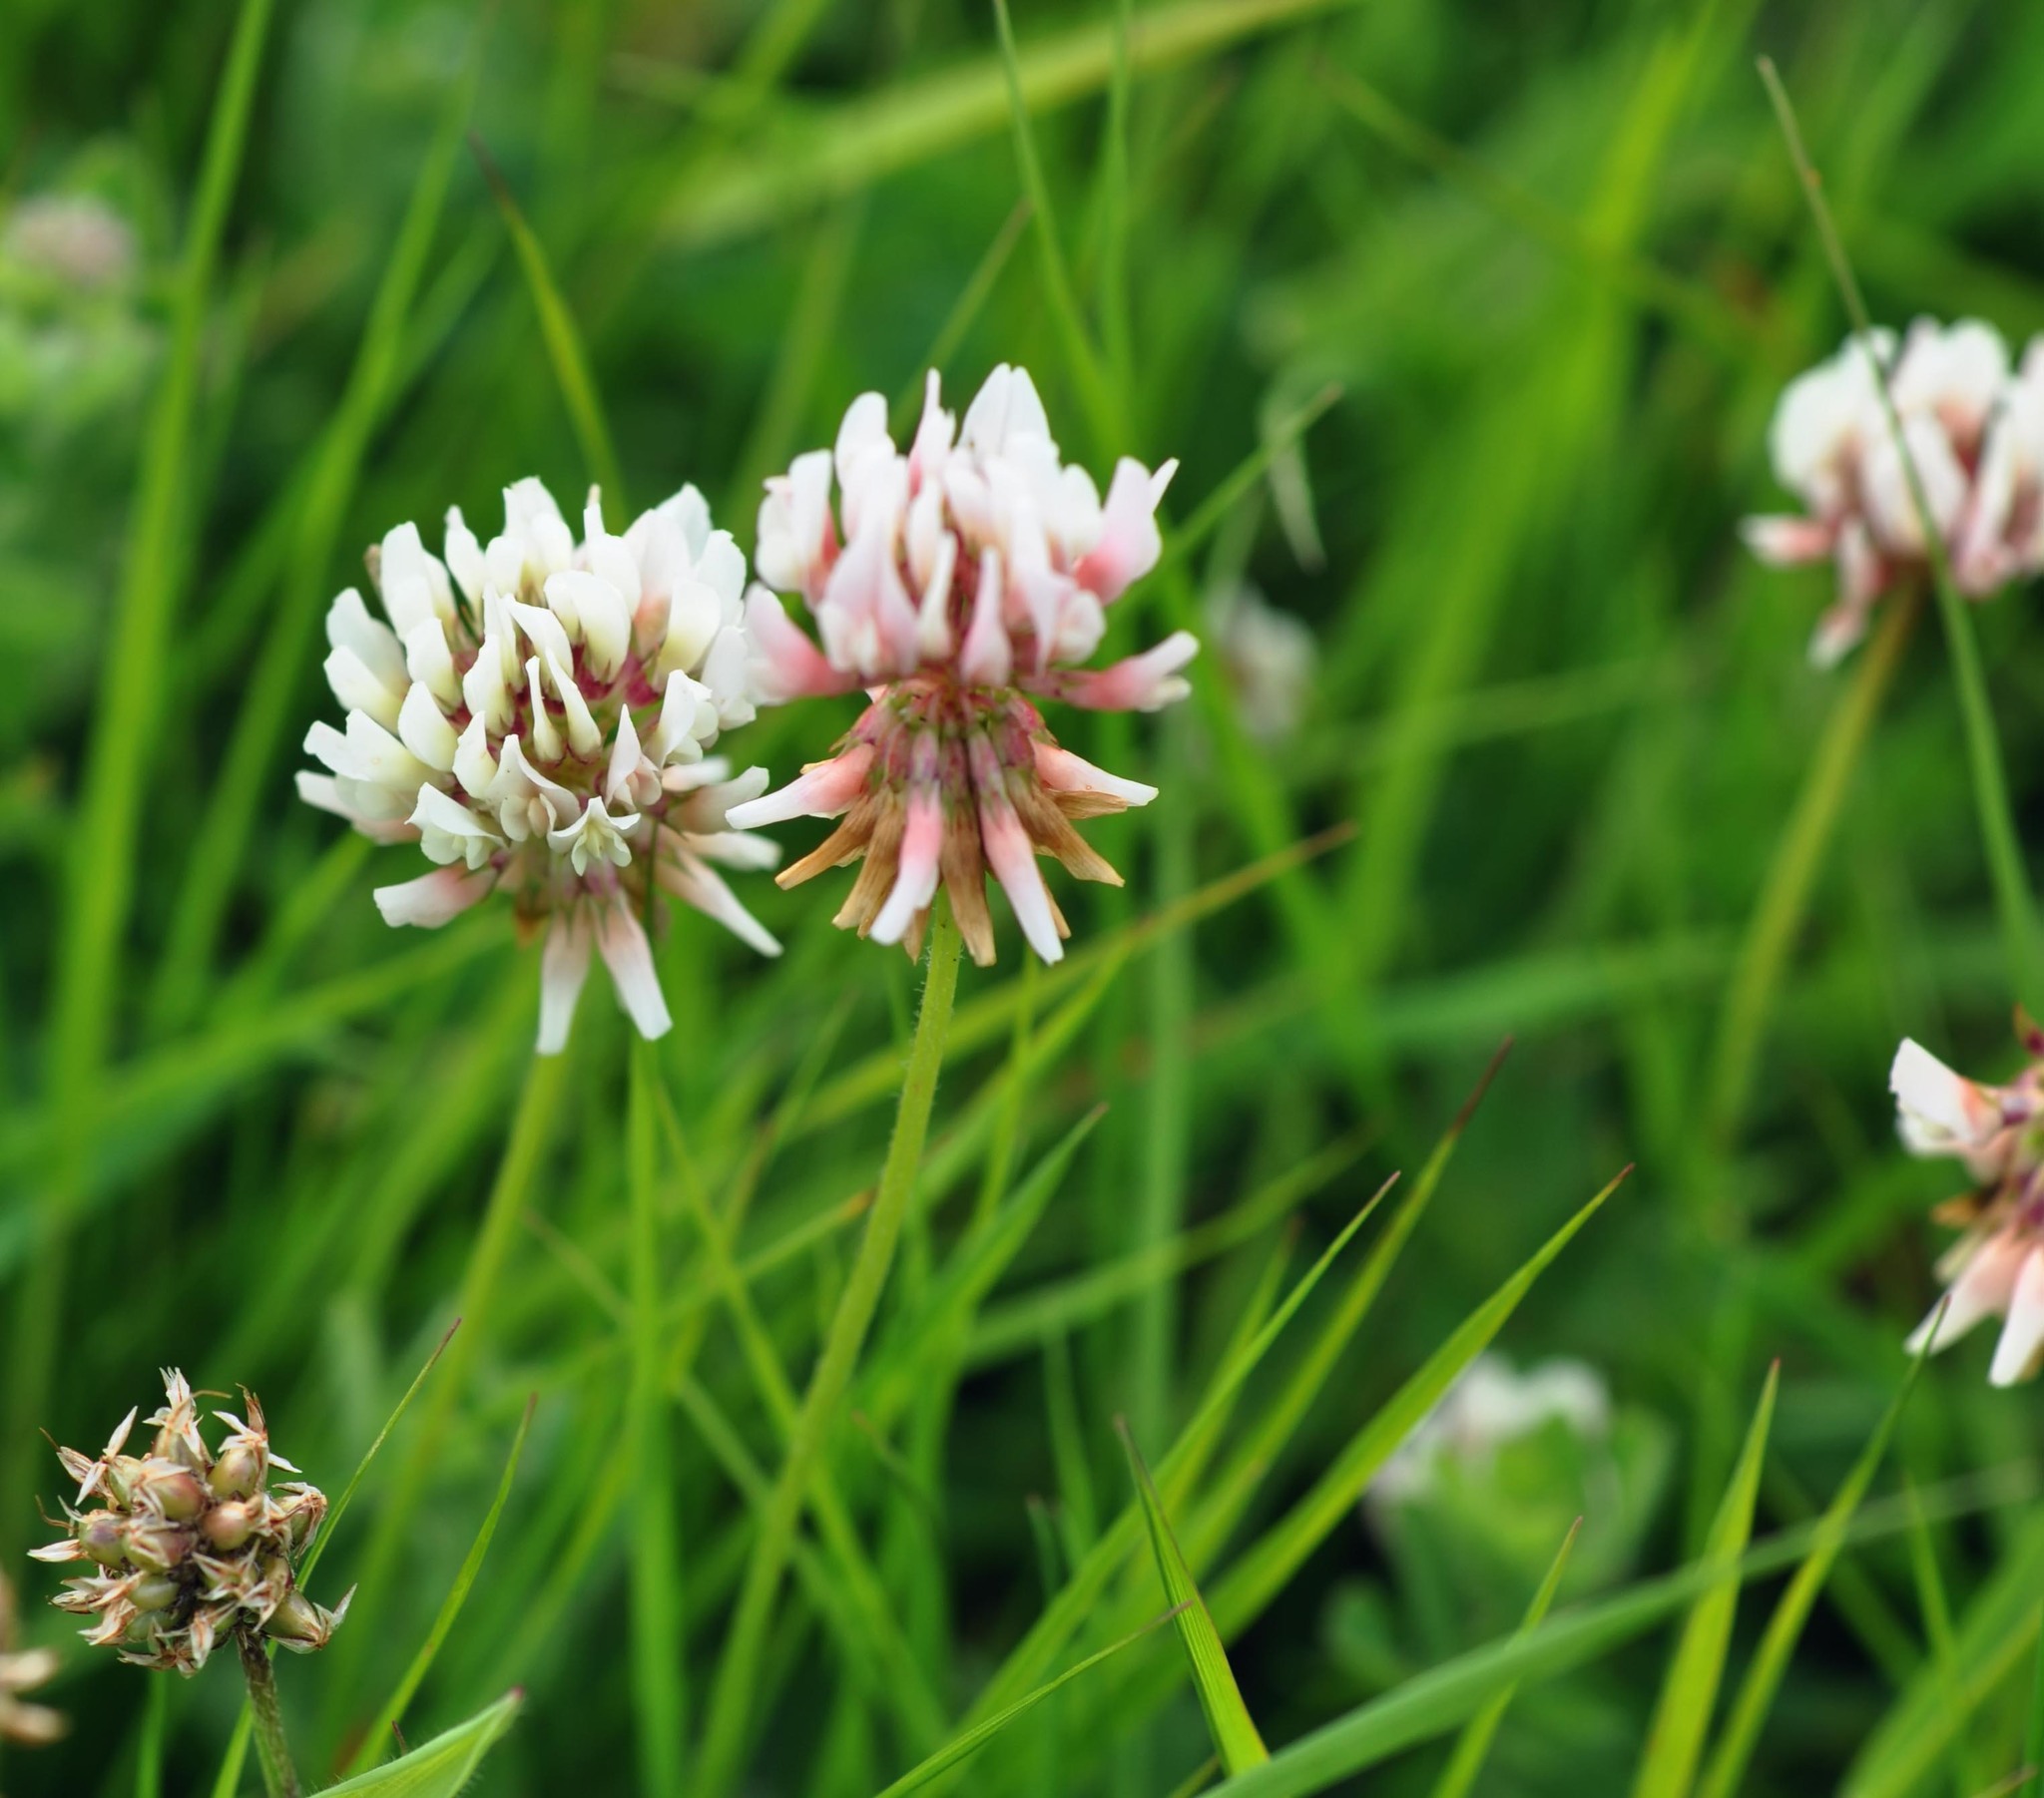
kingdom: Plantae
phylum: Tracheophyta
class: Magnoliopsida
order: Fabales
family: Fabaceae
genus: Trifolium
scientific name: Trifolium repens
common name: White clover
